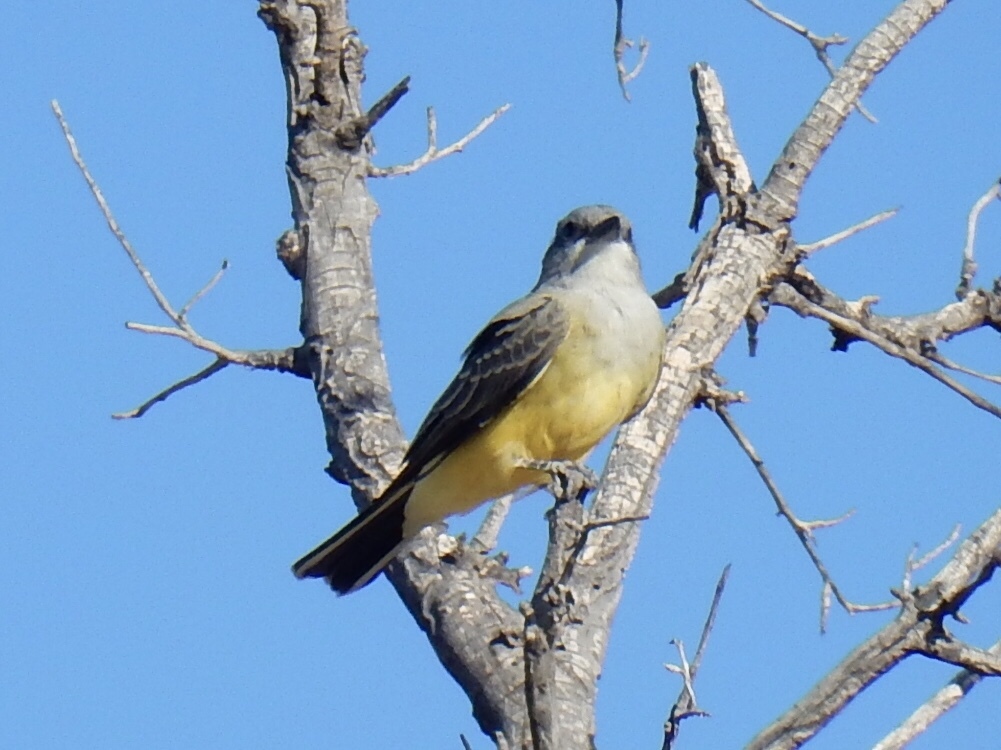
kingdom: Animalia
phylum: Chordata
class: Aves
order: Passeriformes
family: Tyrannidae
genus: Tyrannus
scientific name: Tyrannus verticalis
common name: Western kingbird
